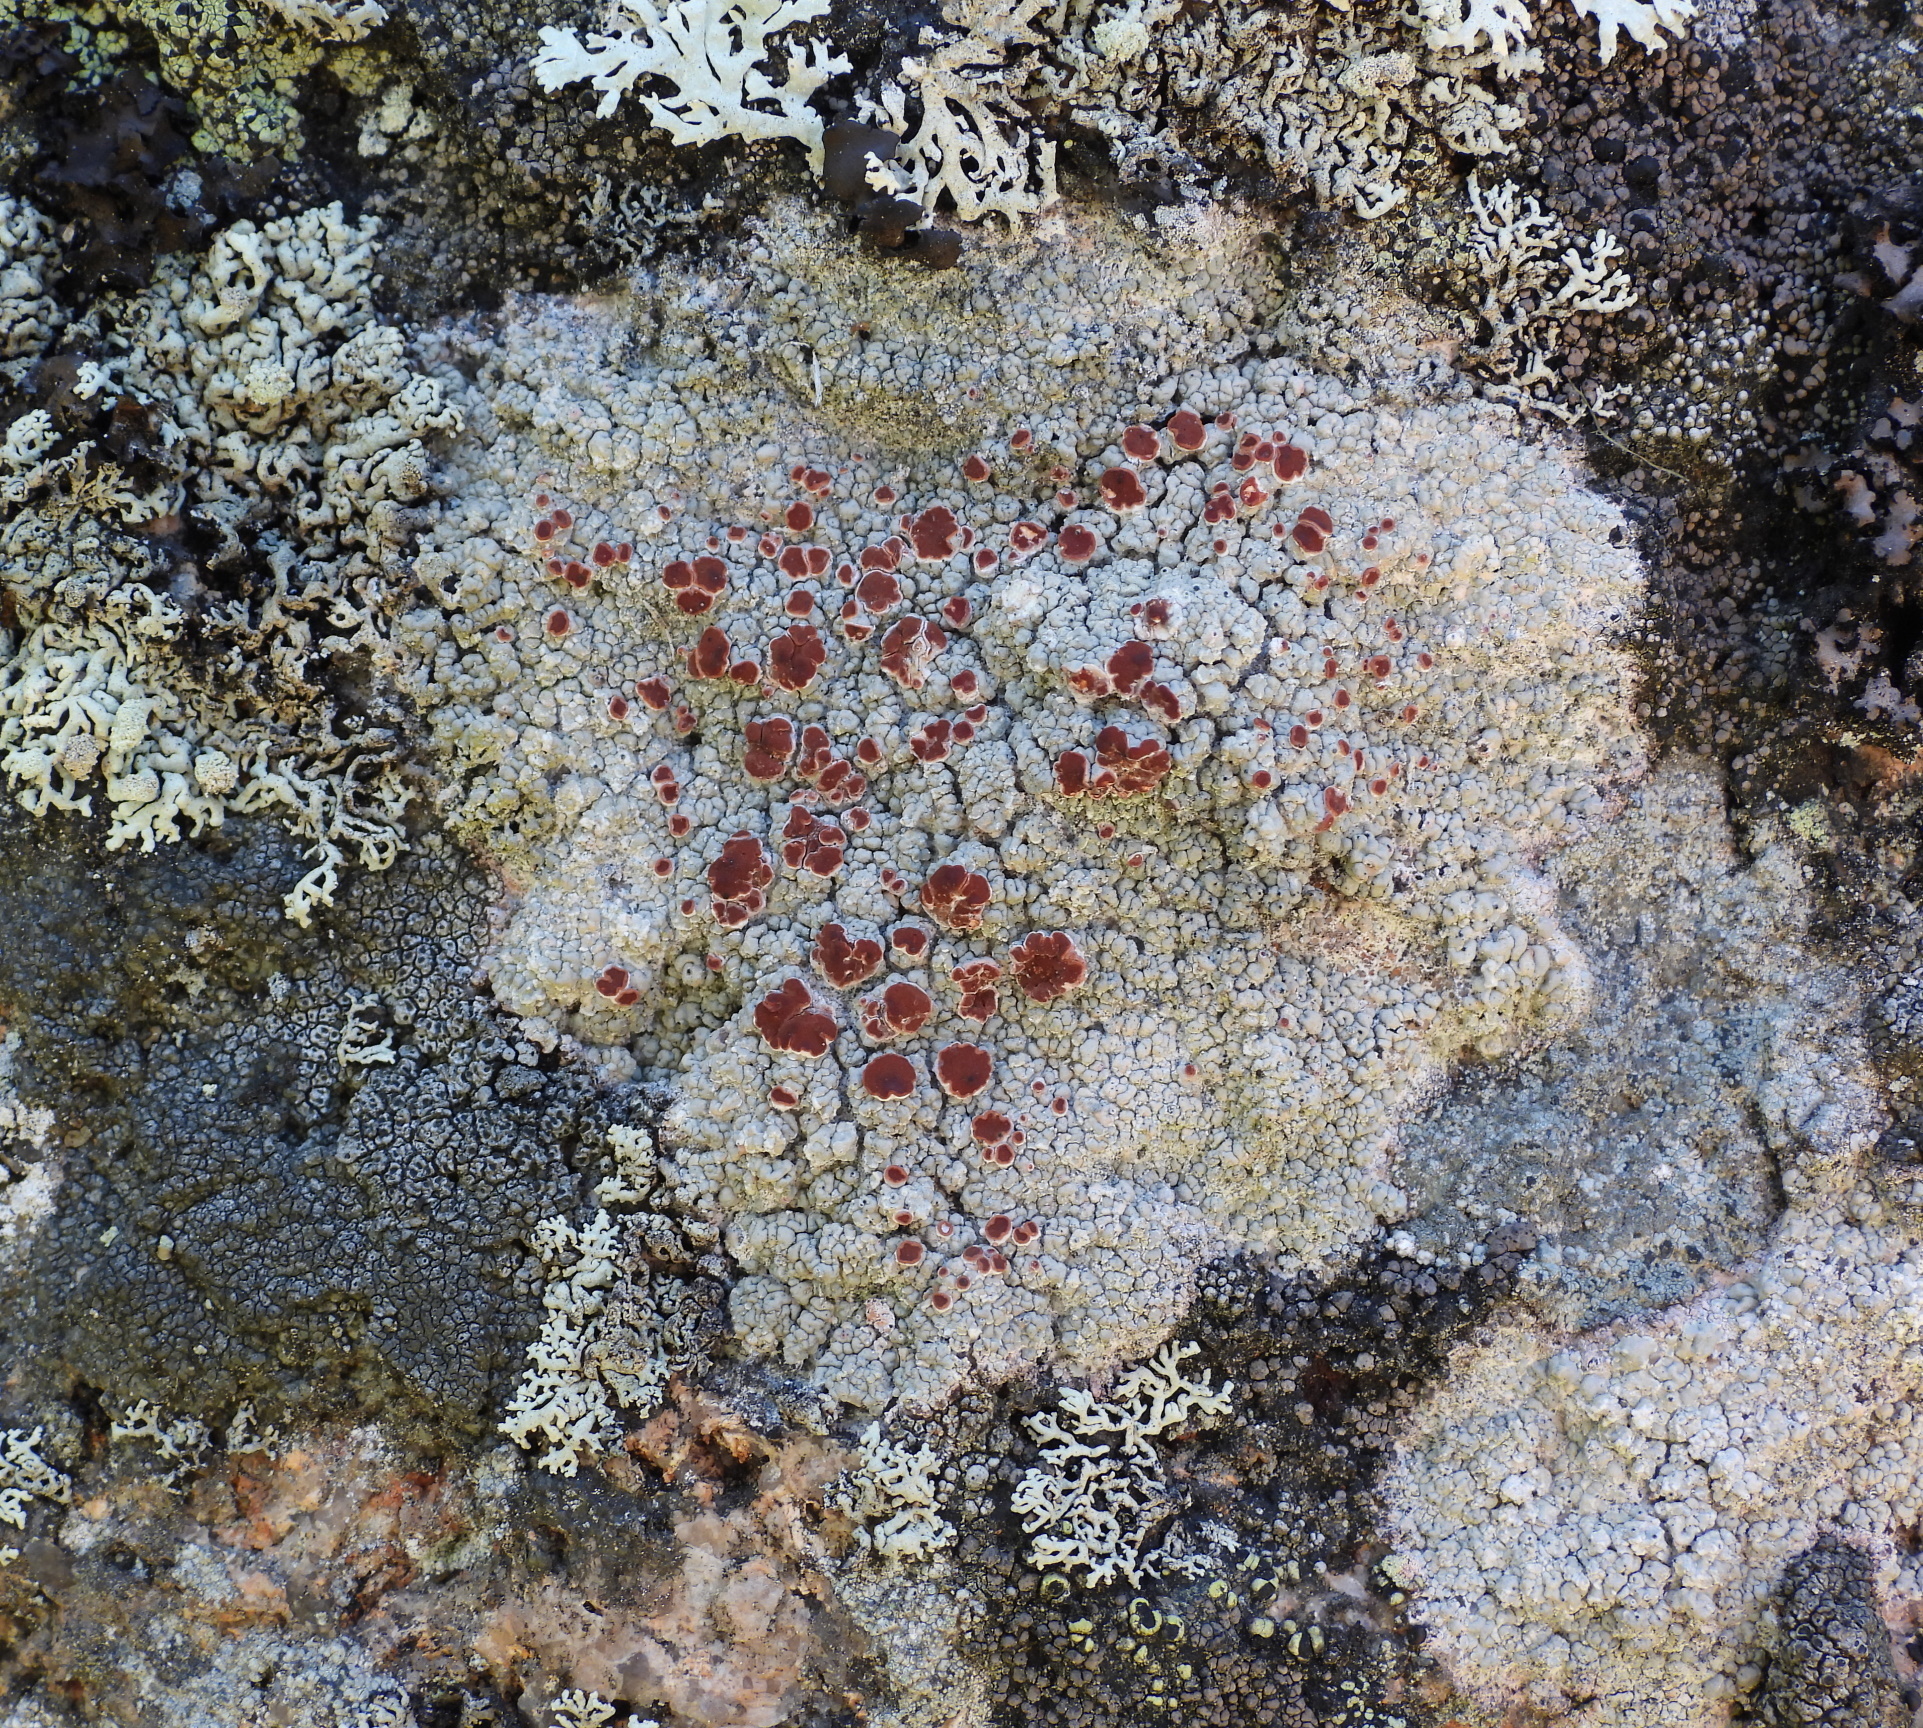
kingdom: Fungi
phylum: Ascomycota
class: Lecanoromycetes
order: Umbilicariales
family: Ophioparmaceae
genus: Ophioparma
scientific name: Ophioparma ventosa
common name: Blood-spot
